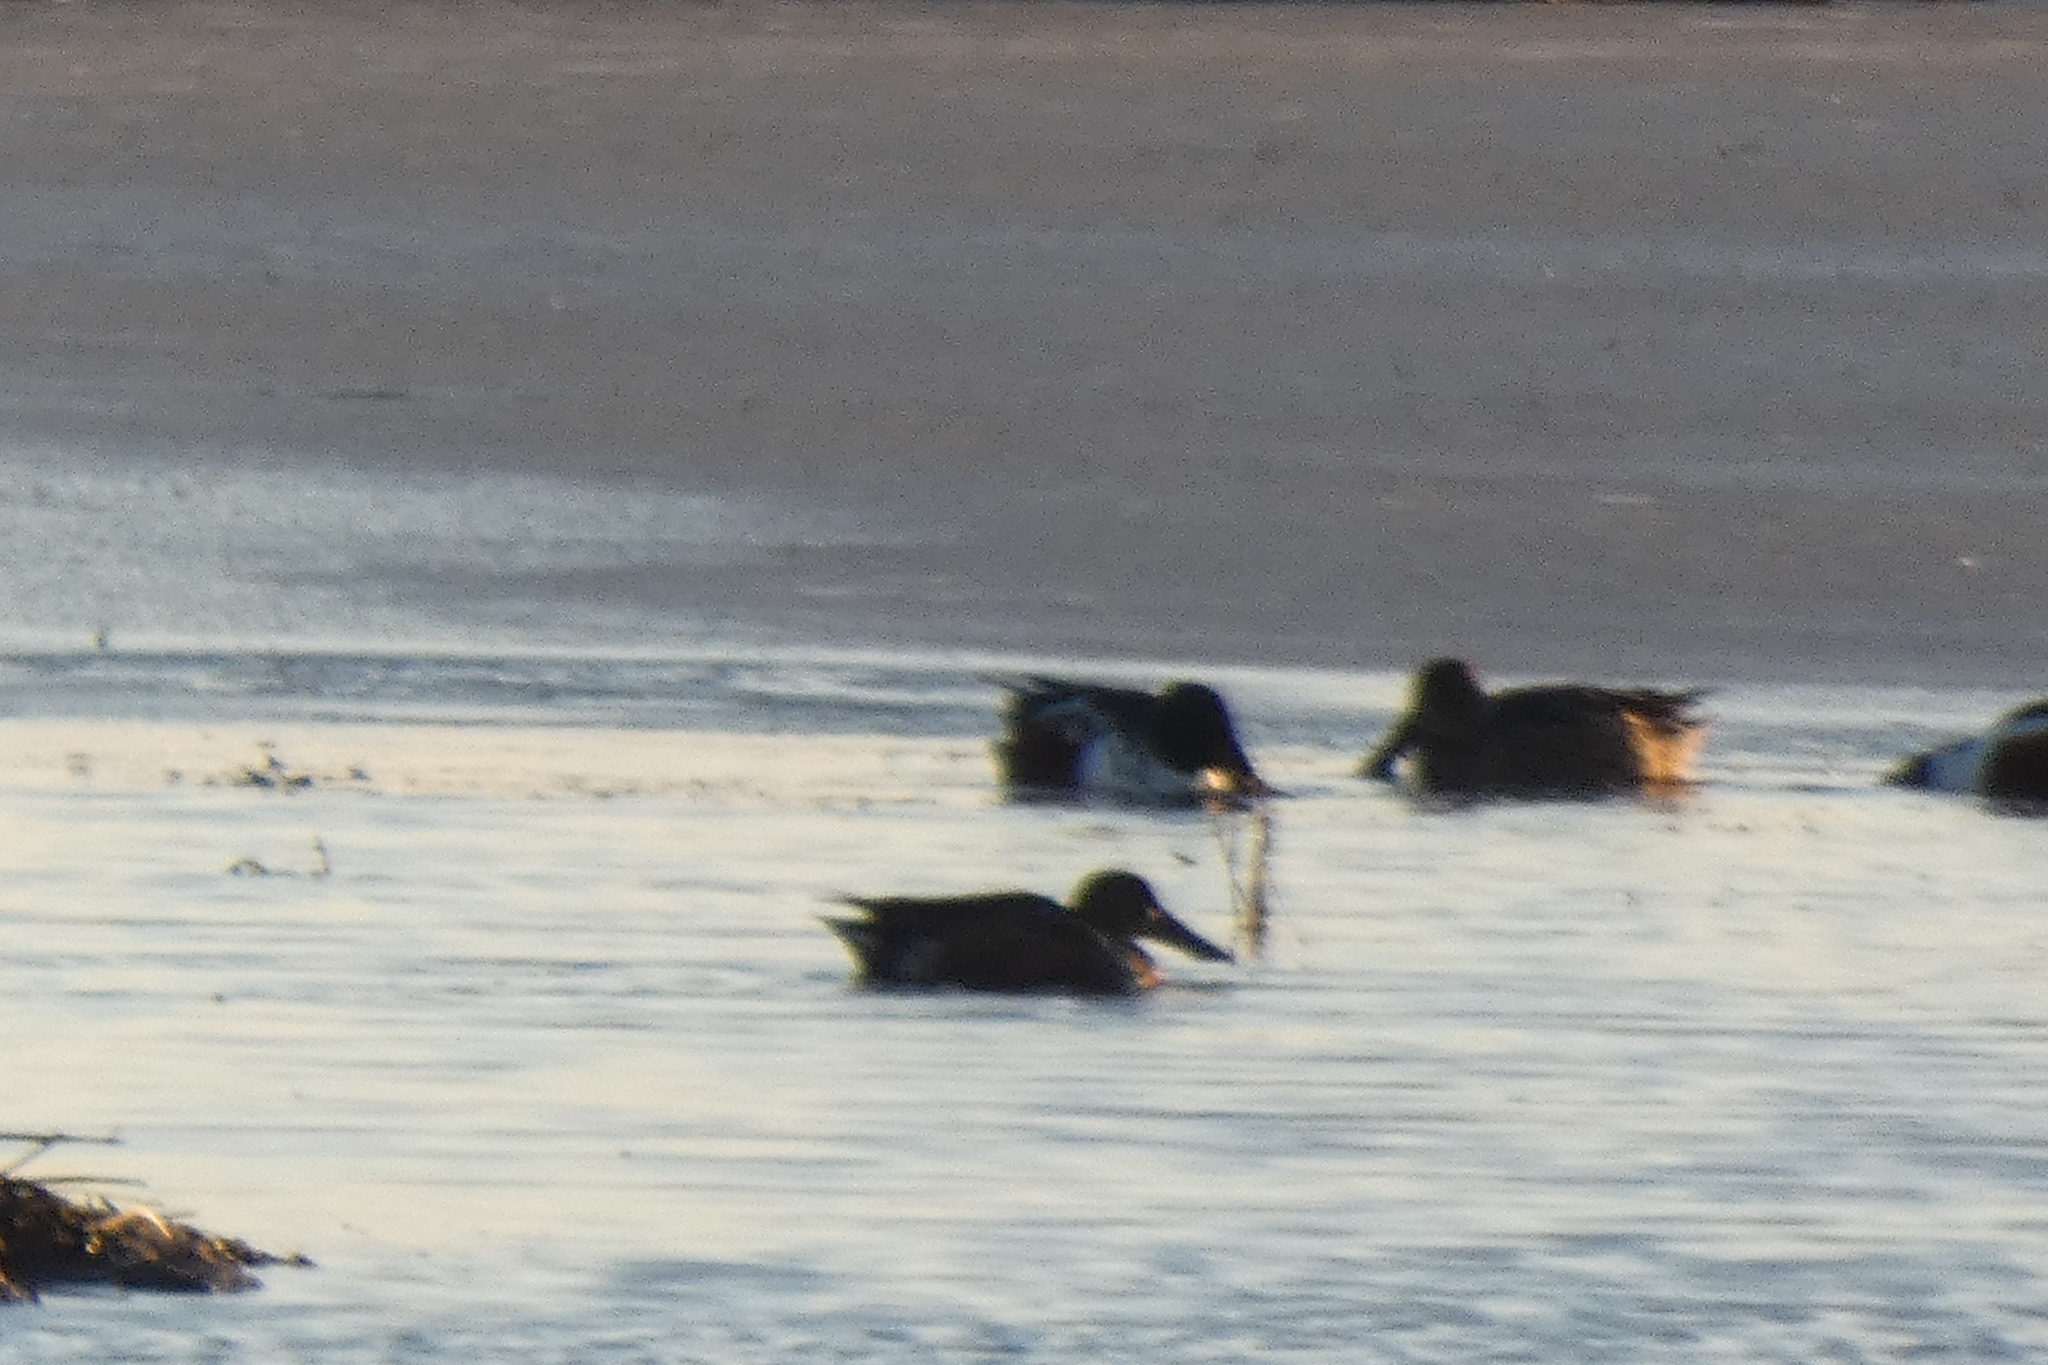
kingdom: Animalia
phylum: Chordata
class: Aves
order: Anseriformes
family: Anatidae
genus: Spatula
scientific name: Spatula clypeata
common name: Northern shoveler
